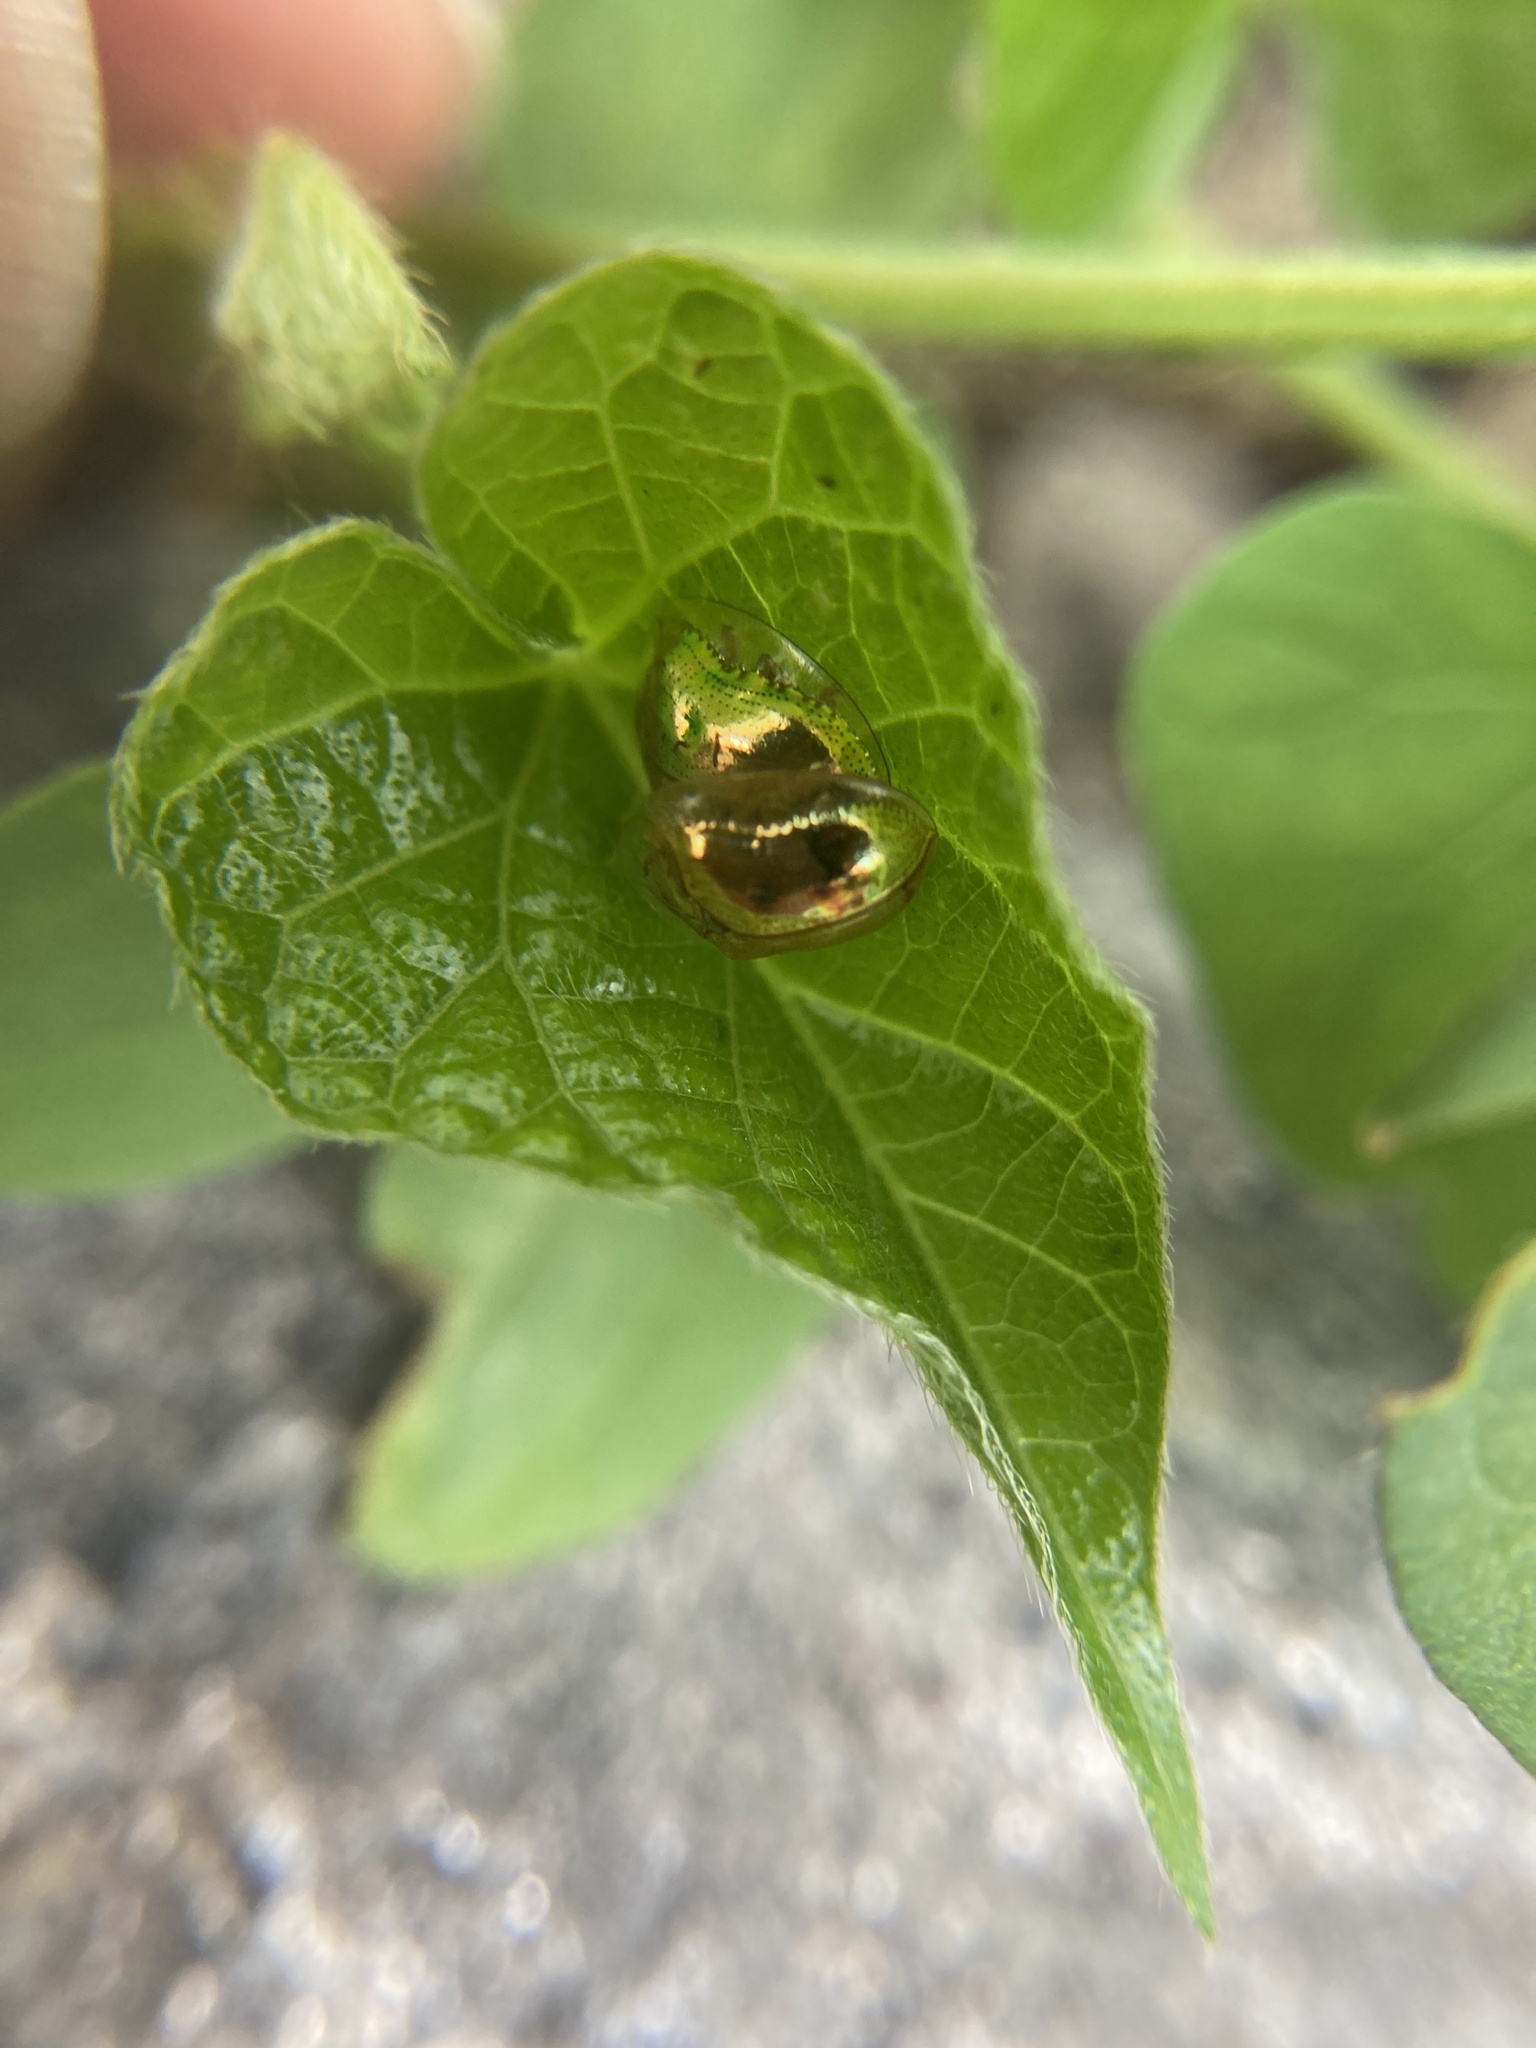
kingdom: Animalia
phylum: Arthropoda
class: Insecta
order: Coleoptera
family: Chrysomelidae
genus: Charidotella
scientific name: Charidotella sexpunctata
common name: Golden tortoise beetle
